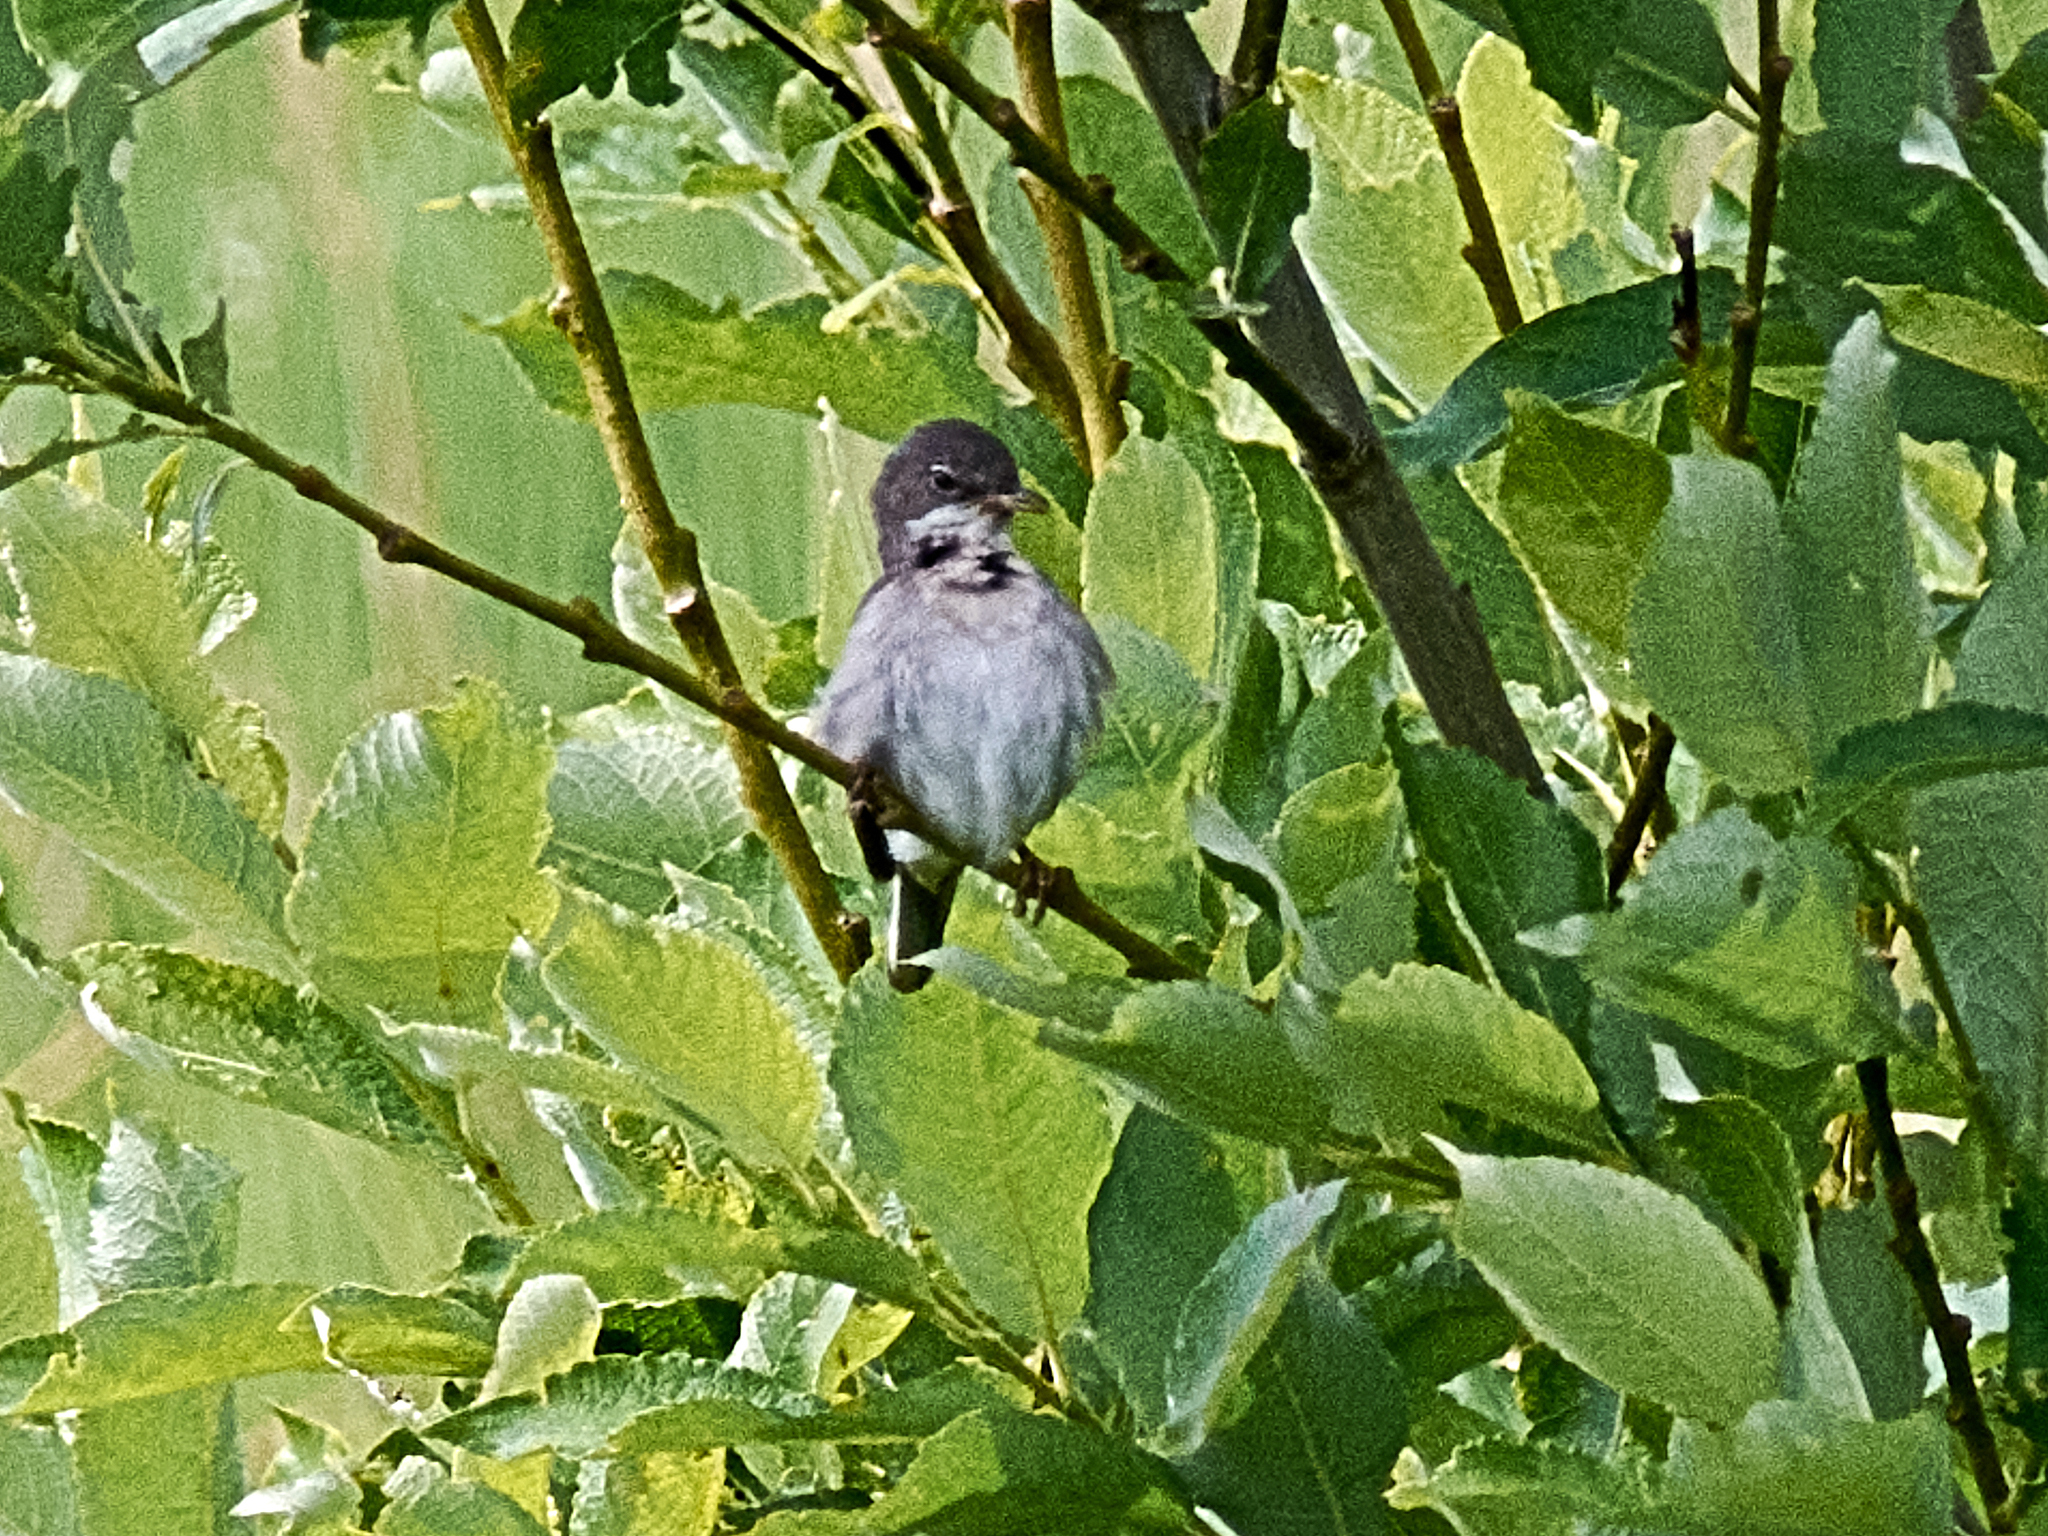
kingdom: Animalia
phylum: Chordata
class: Aves
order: Passeriformes
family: Sylviidae
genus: Sylvia
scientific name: Sylvia communis
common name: Common whitethroat
